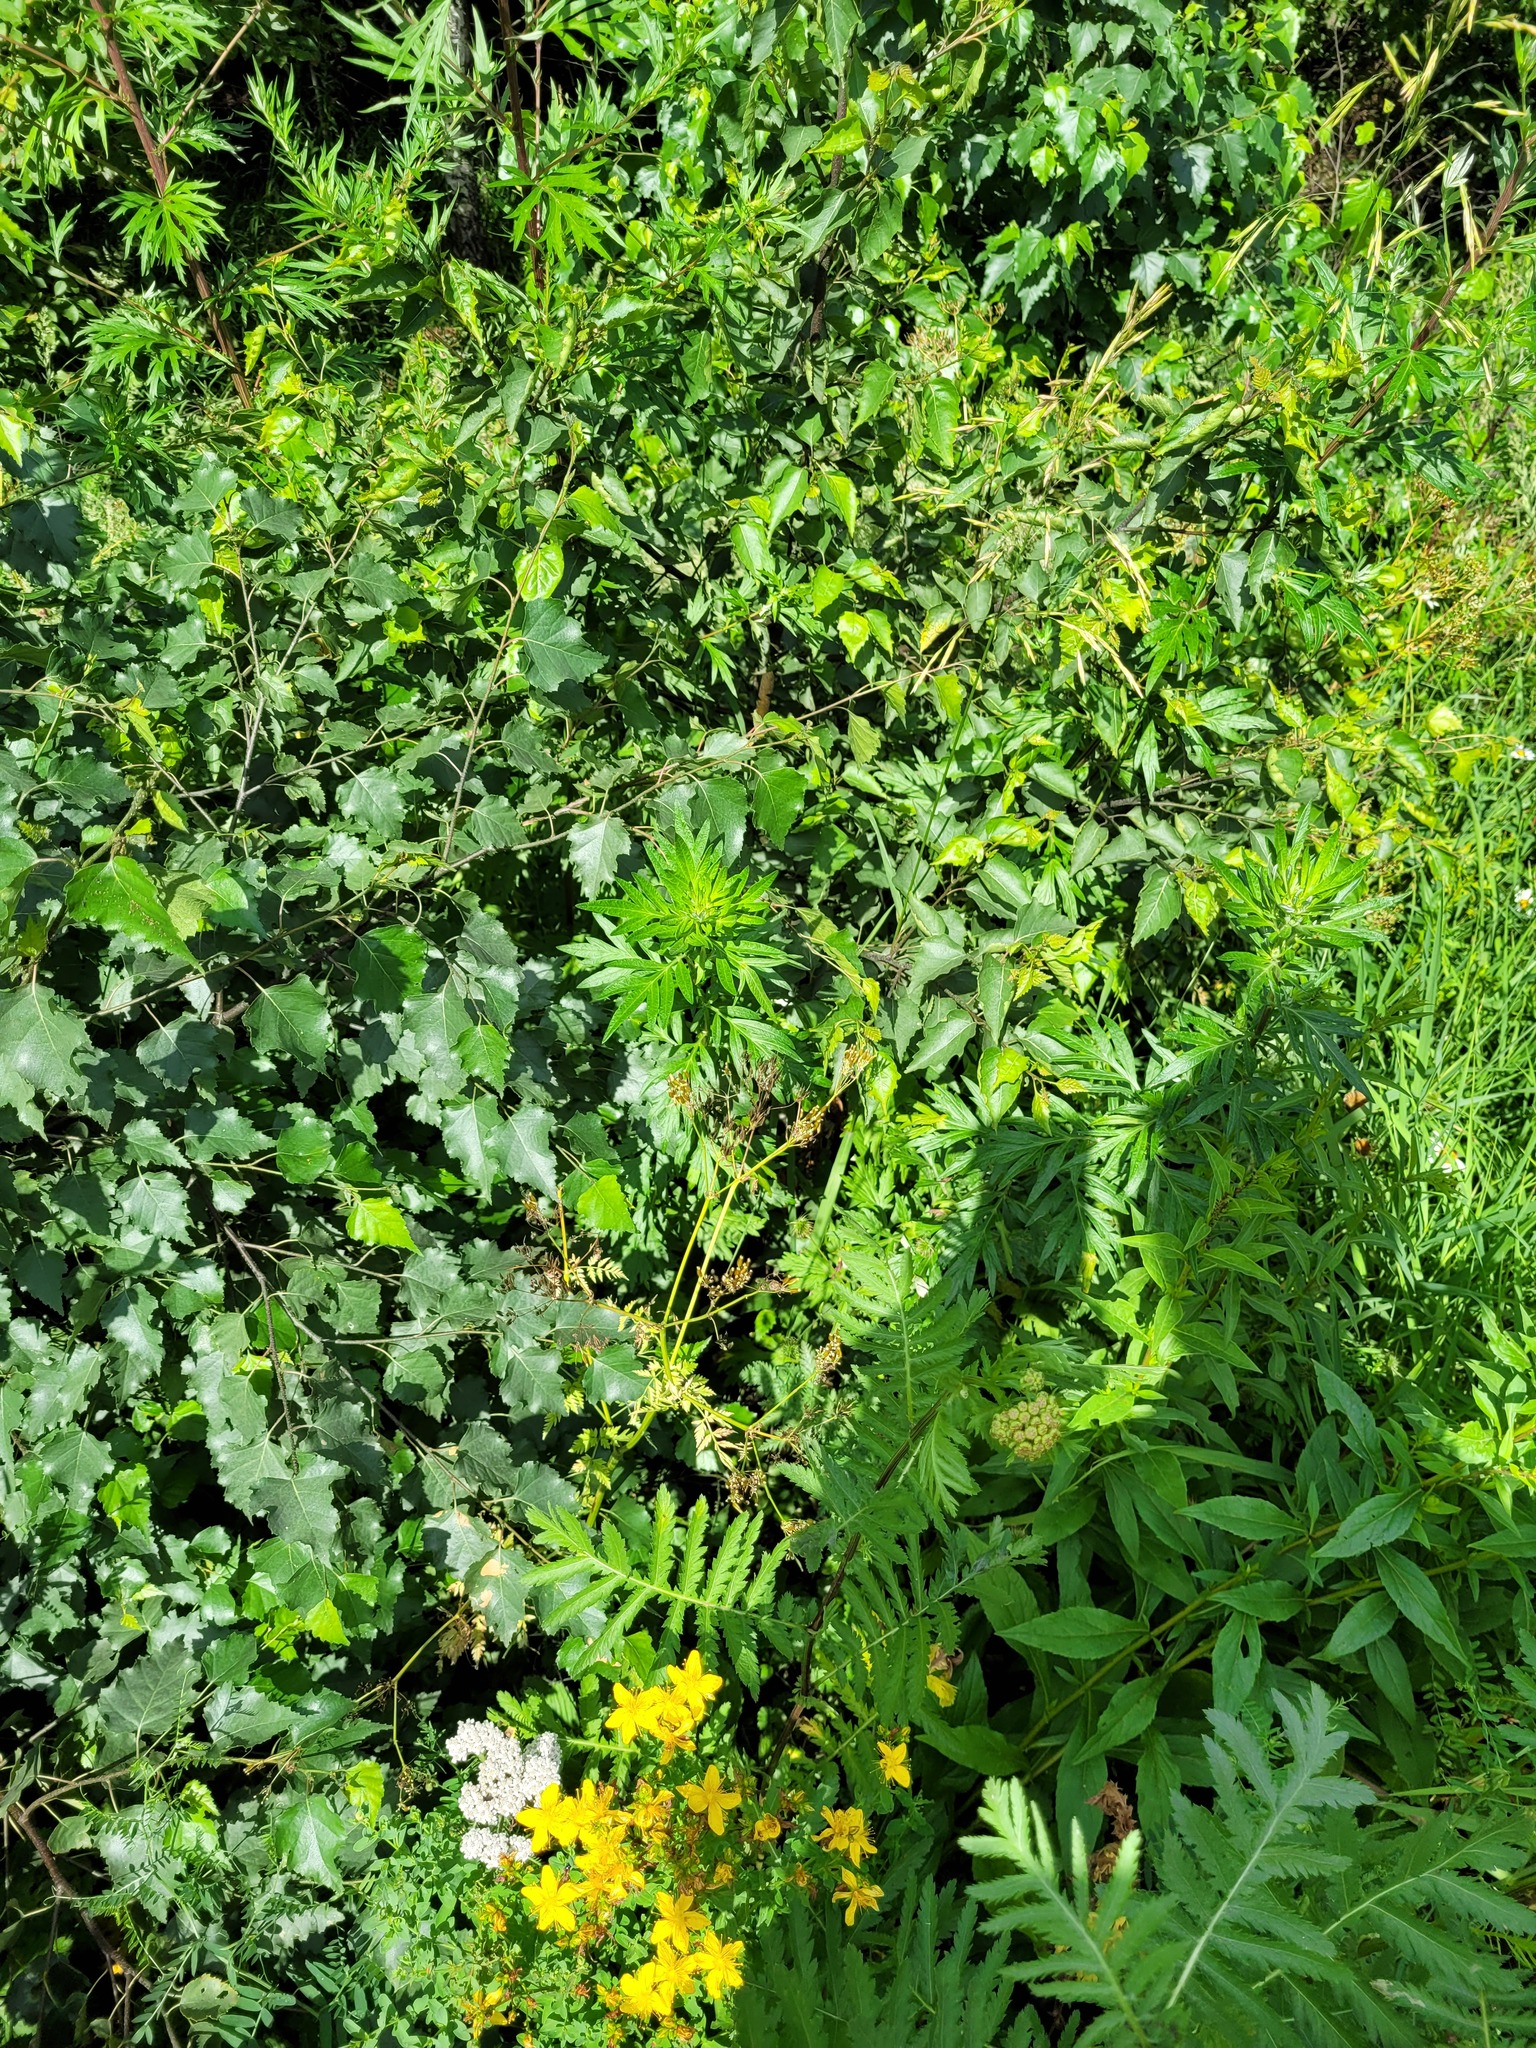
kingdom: Plantae
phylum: Tracheophyta
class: Magnoliopsida
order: Fagales
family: Betulaceae
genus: Betula
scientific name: Betula pendula
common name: Silver birch
